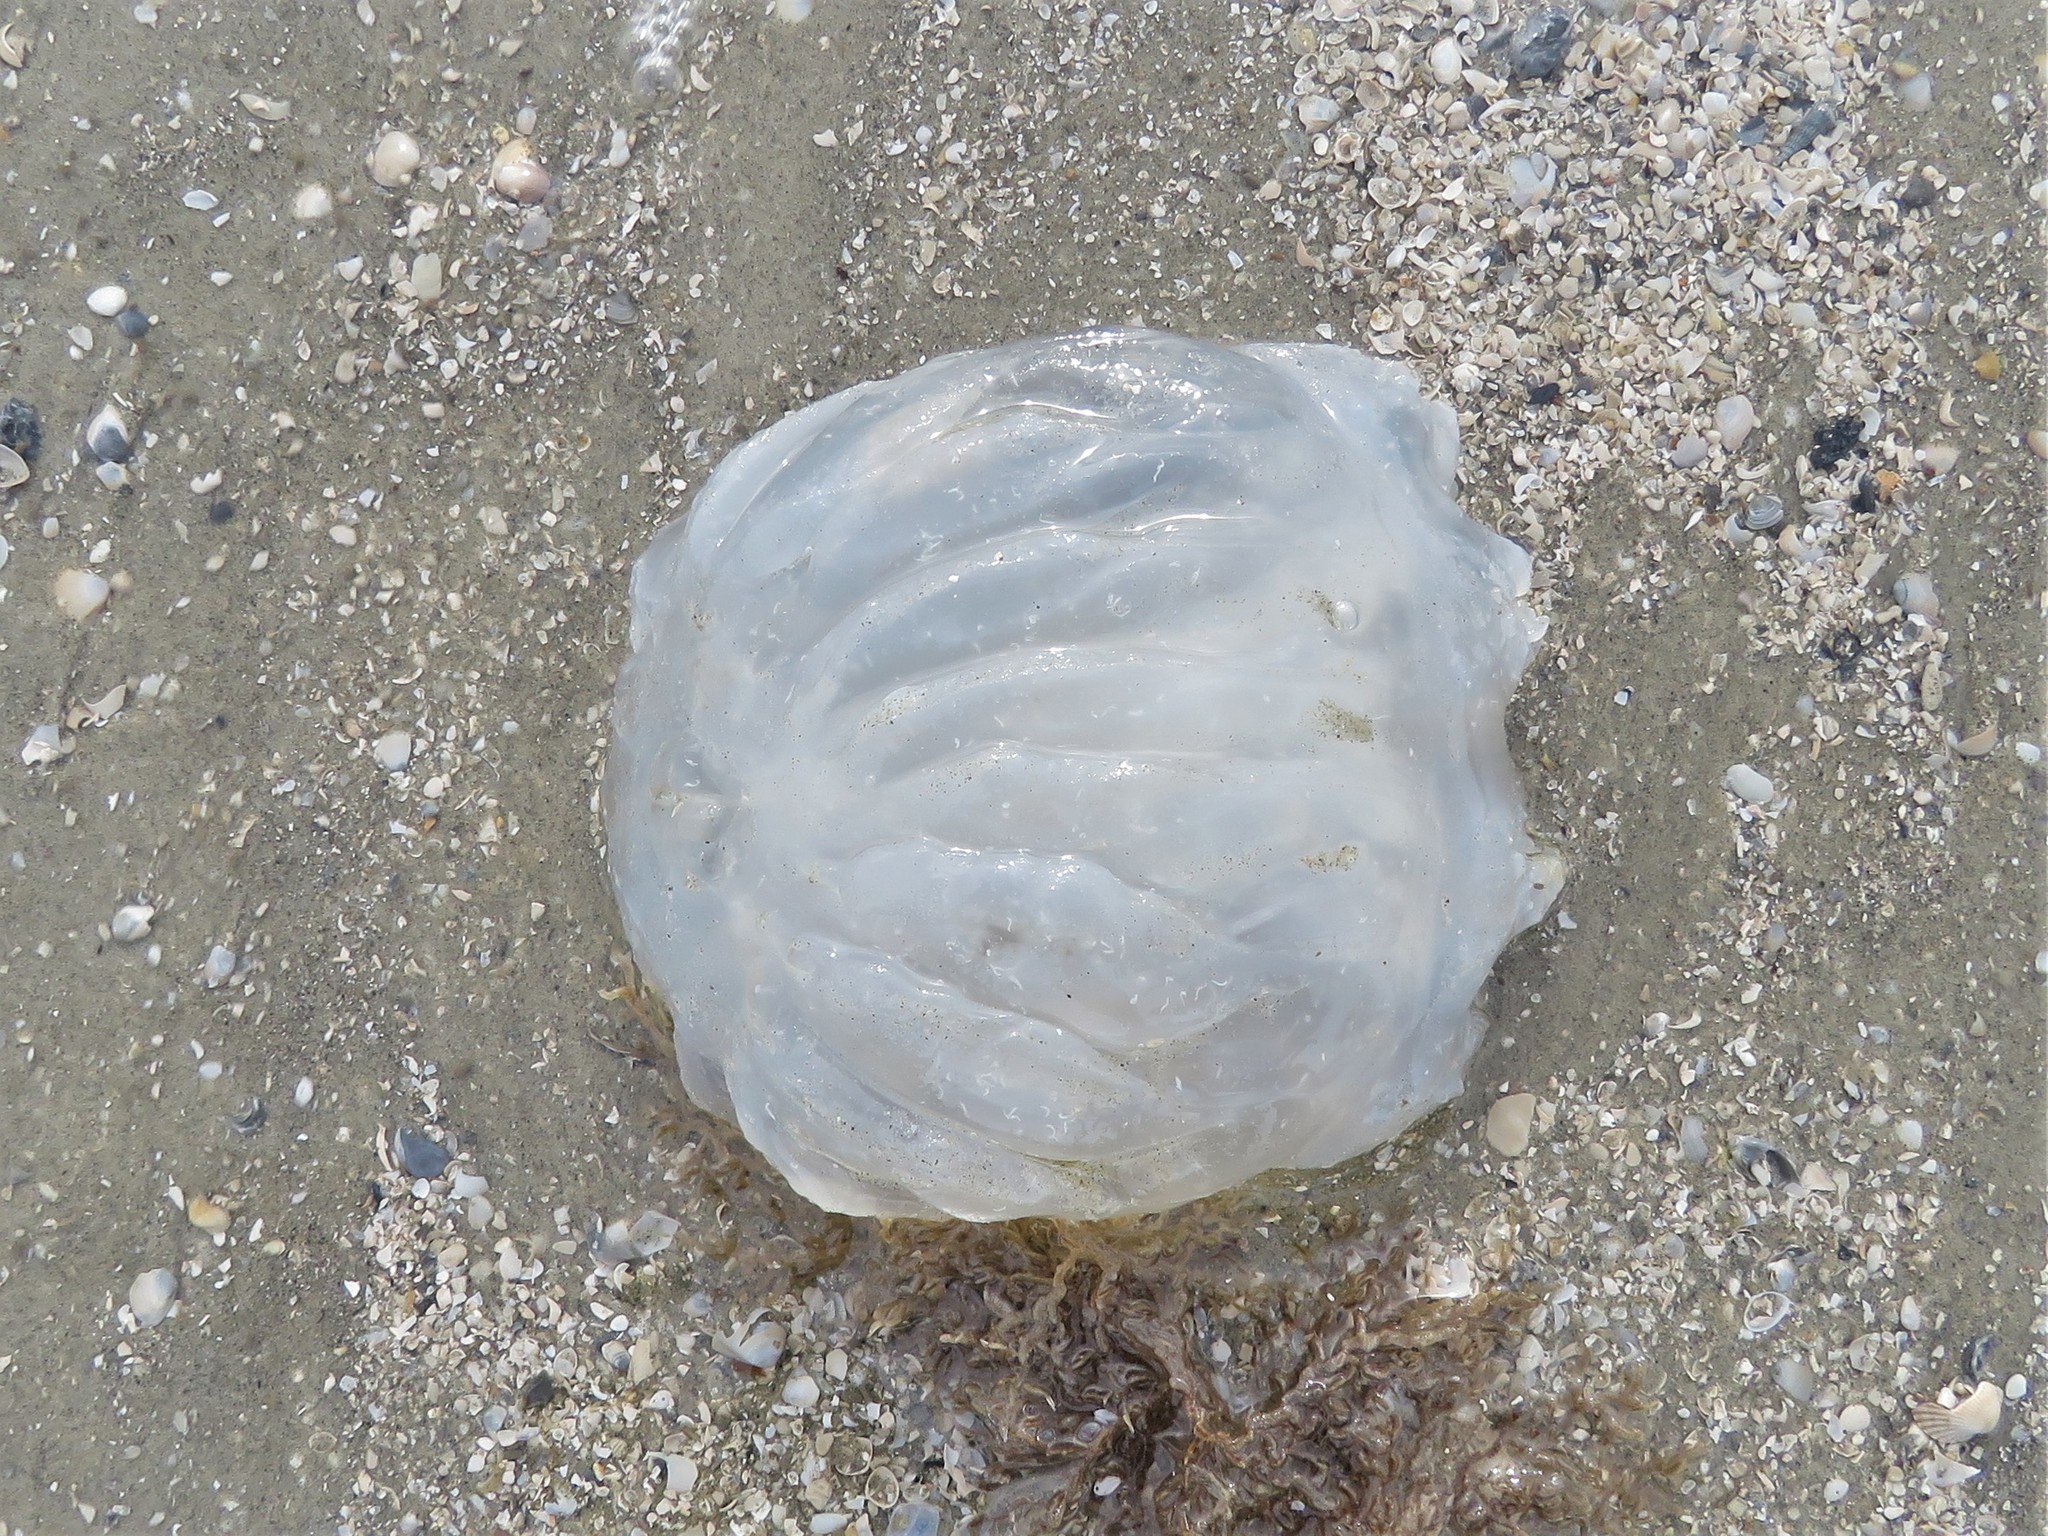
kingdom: Animalia
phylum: Cnidaria
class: Scyphozoa
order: Rhizostomeae
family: Stomolophidae
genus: Stomolophus
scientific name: Stomolophus meleagris
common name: Cabbagehead
